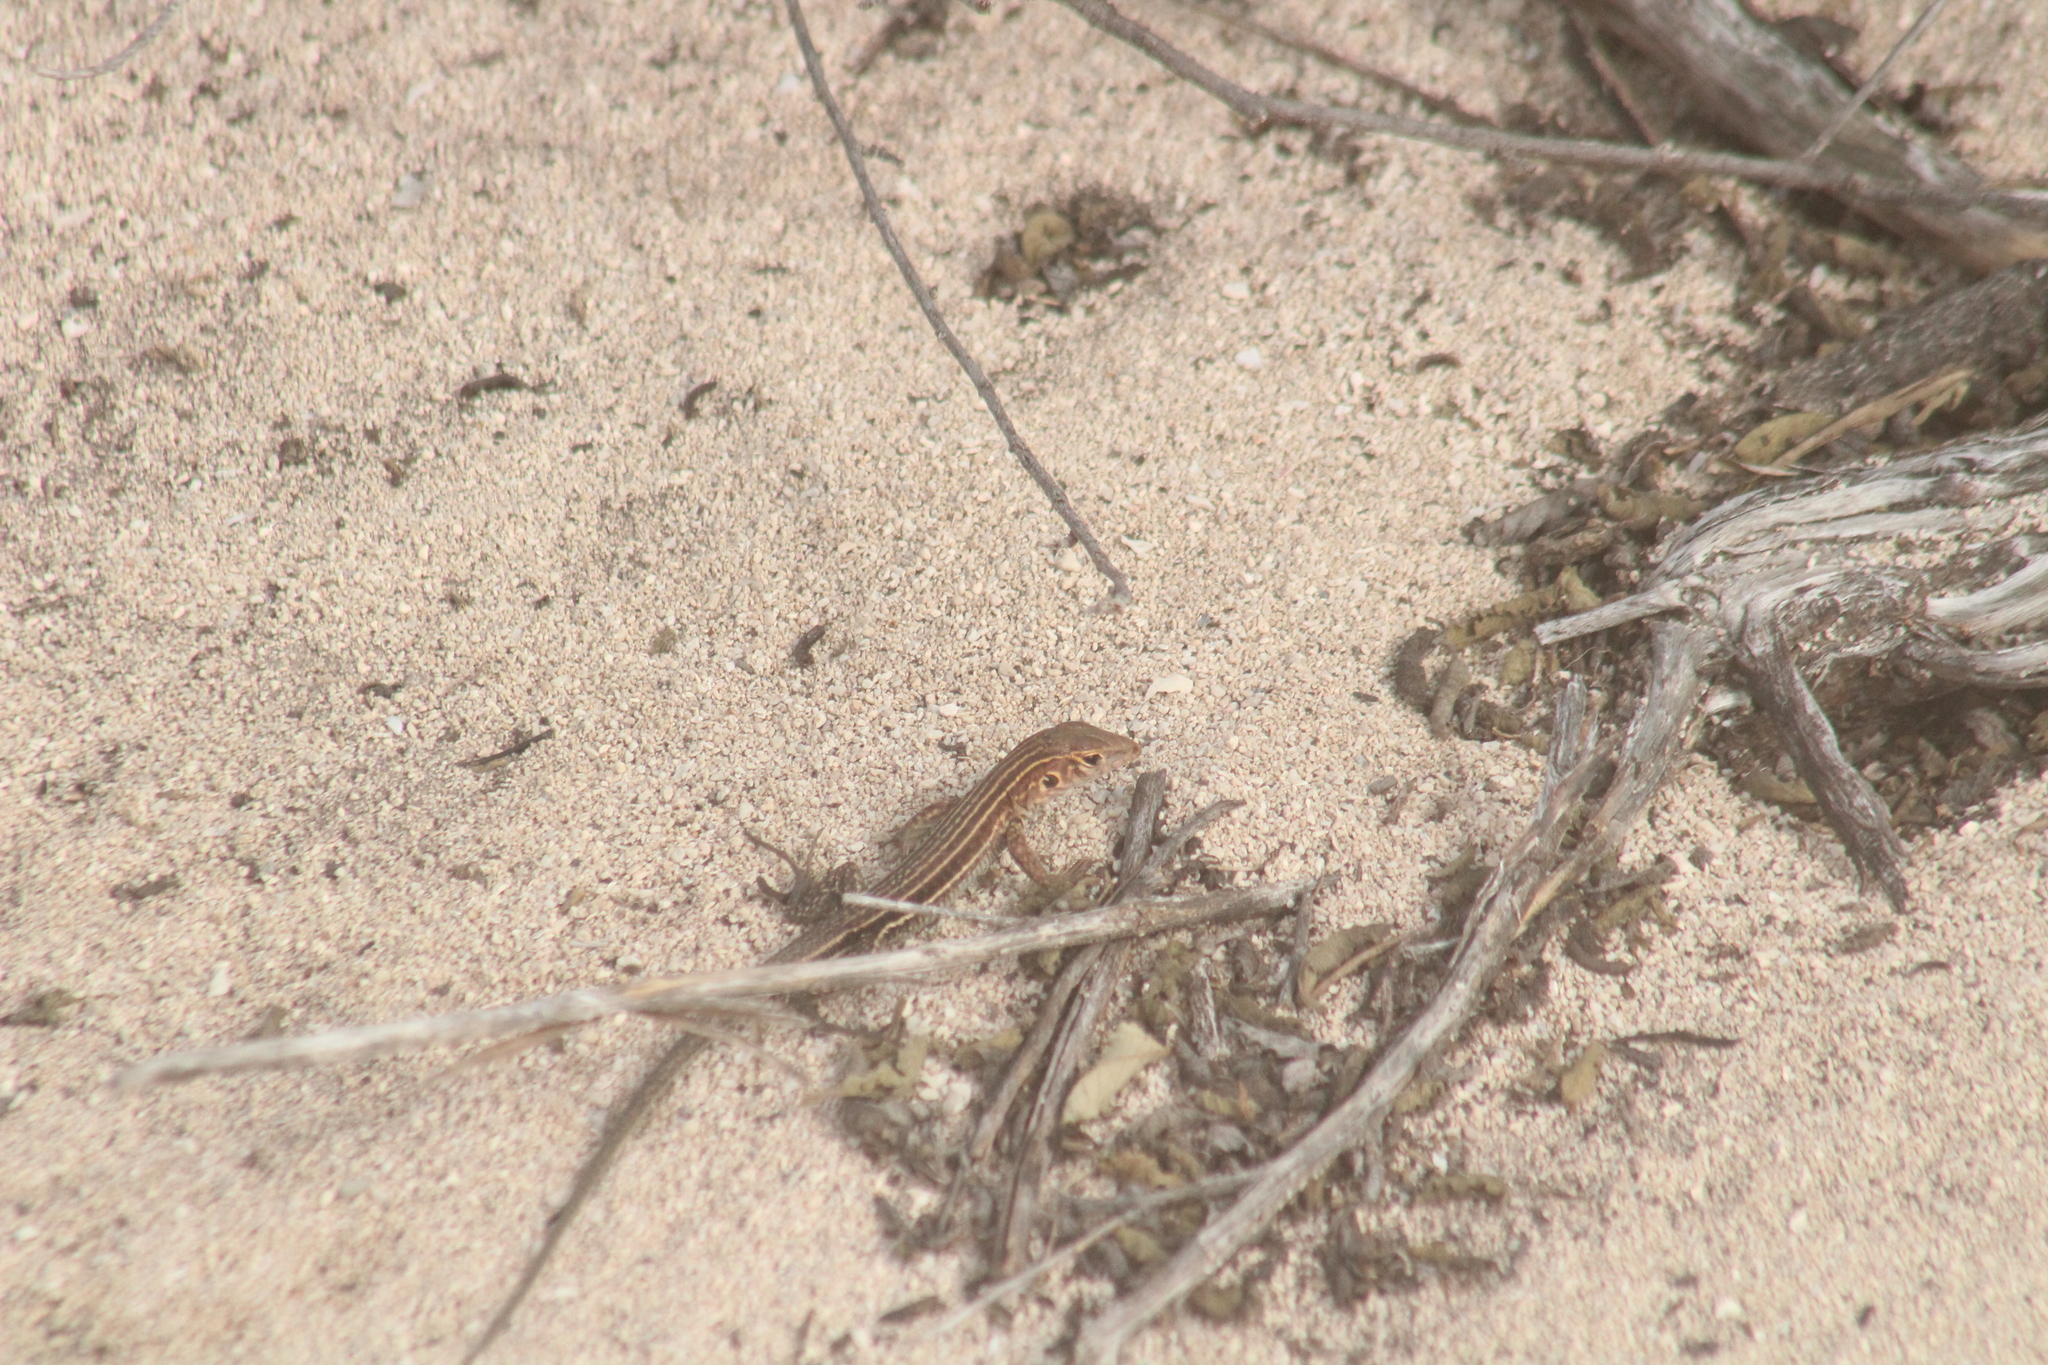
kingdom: Animalia
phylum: Chordata
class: Squamata
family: Teiidae
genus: Pholidoscelis
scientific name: Pholidoscelis plei
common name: Anguilla bank ameiva
